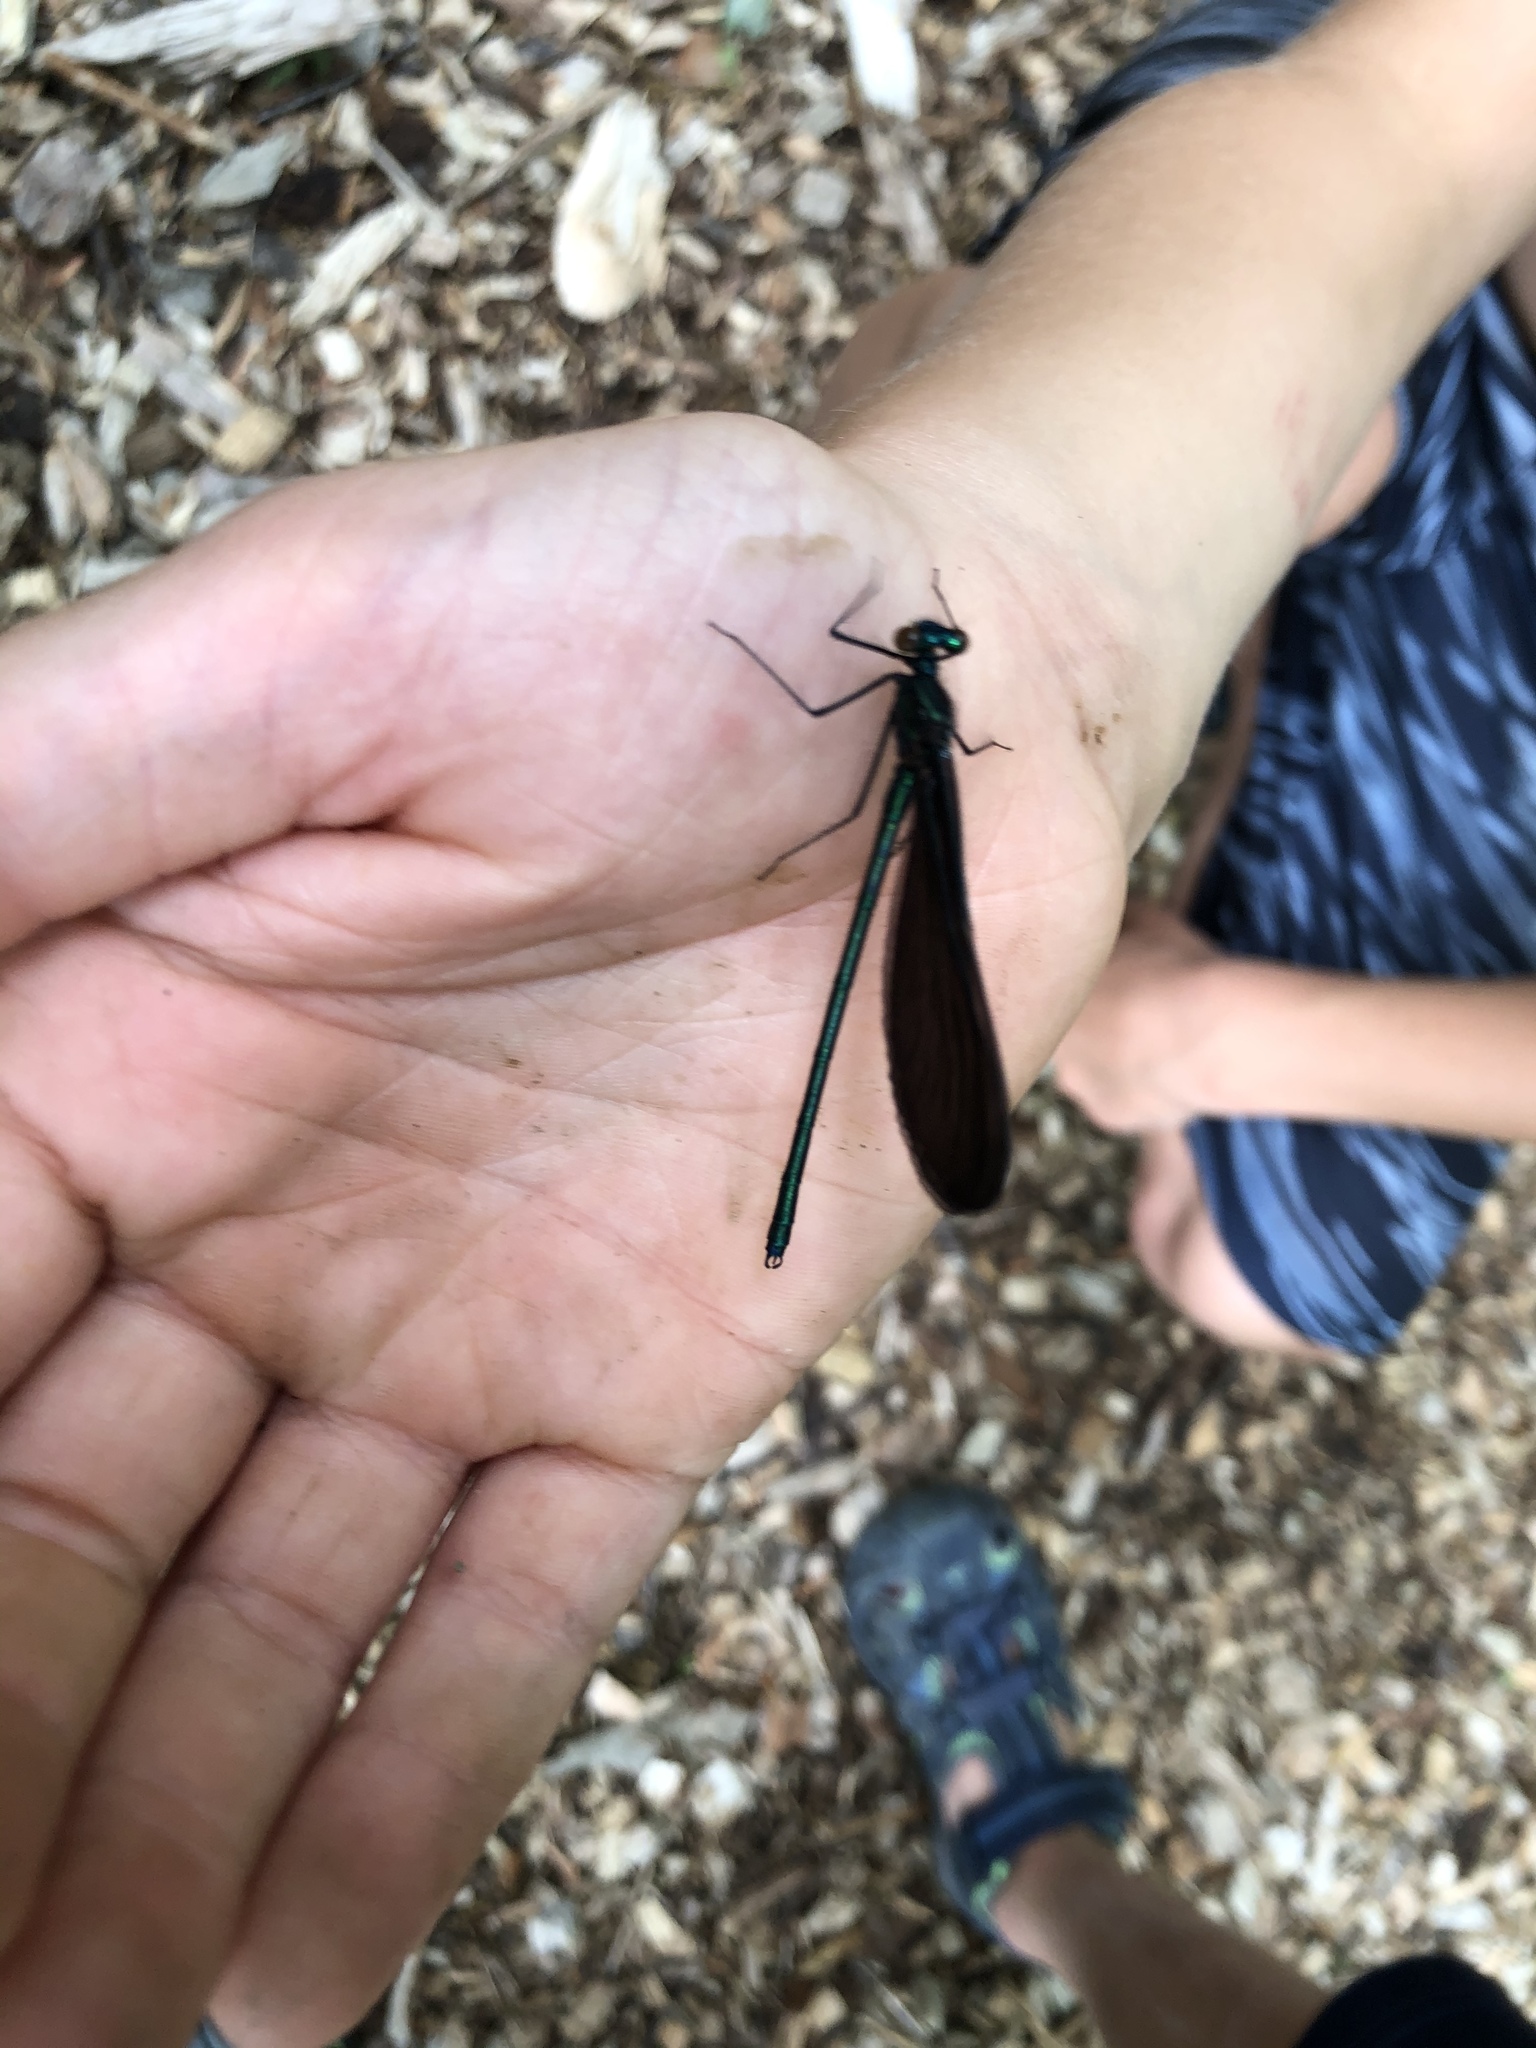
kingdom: Animalia
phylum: Arthropoda
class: Insecta
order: Odonata
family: Calopterygidae
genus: Calopteryx
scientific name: Calopteryx maculata
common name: Ebony jewelwing
